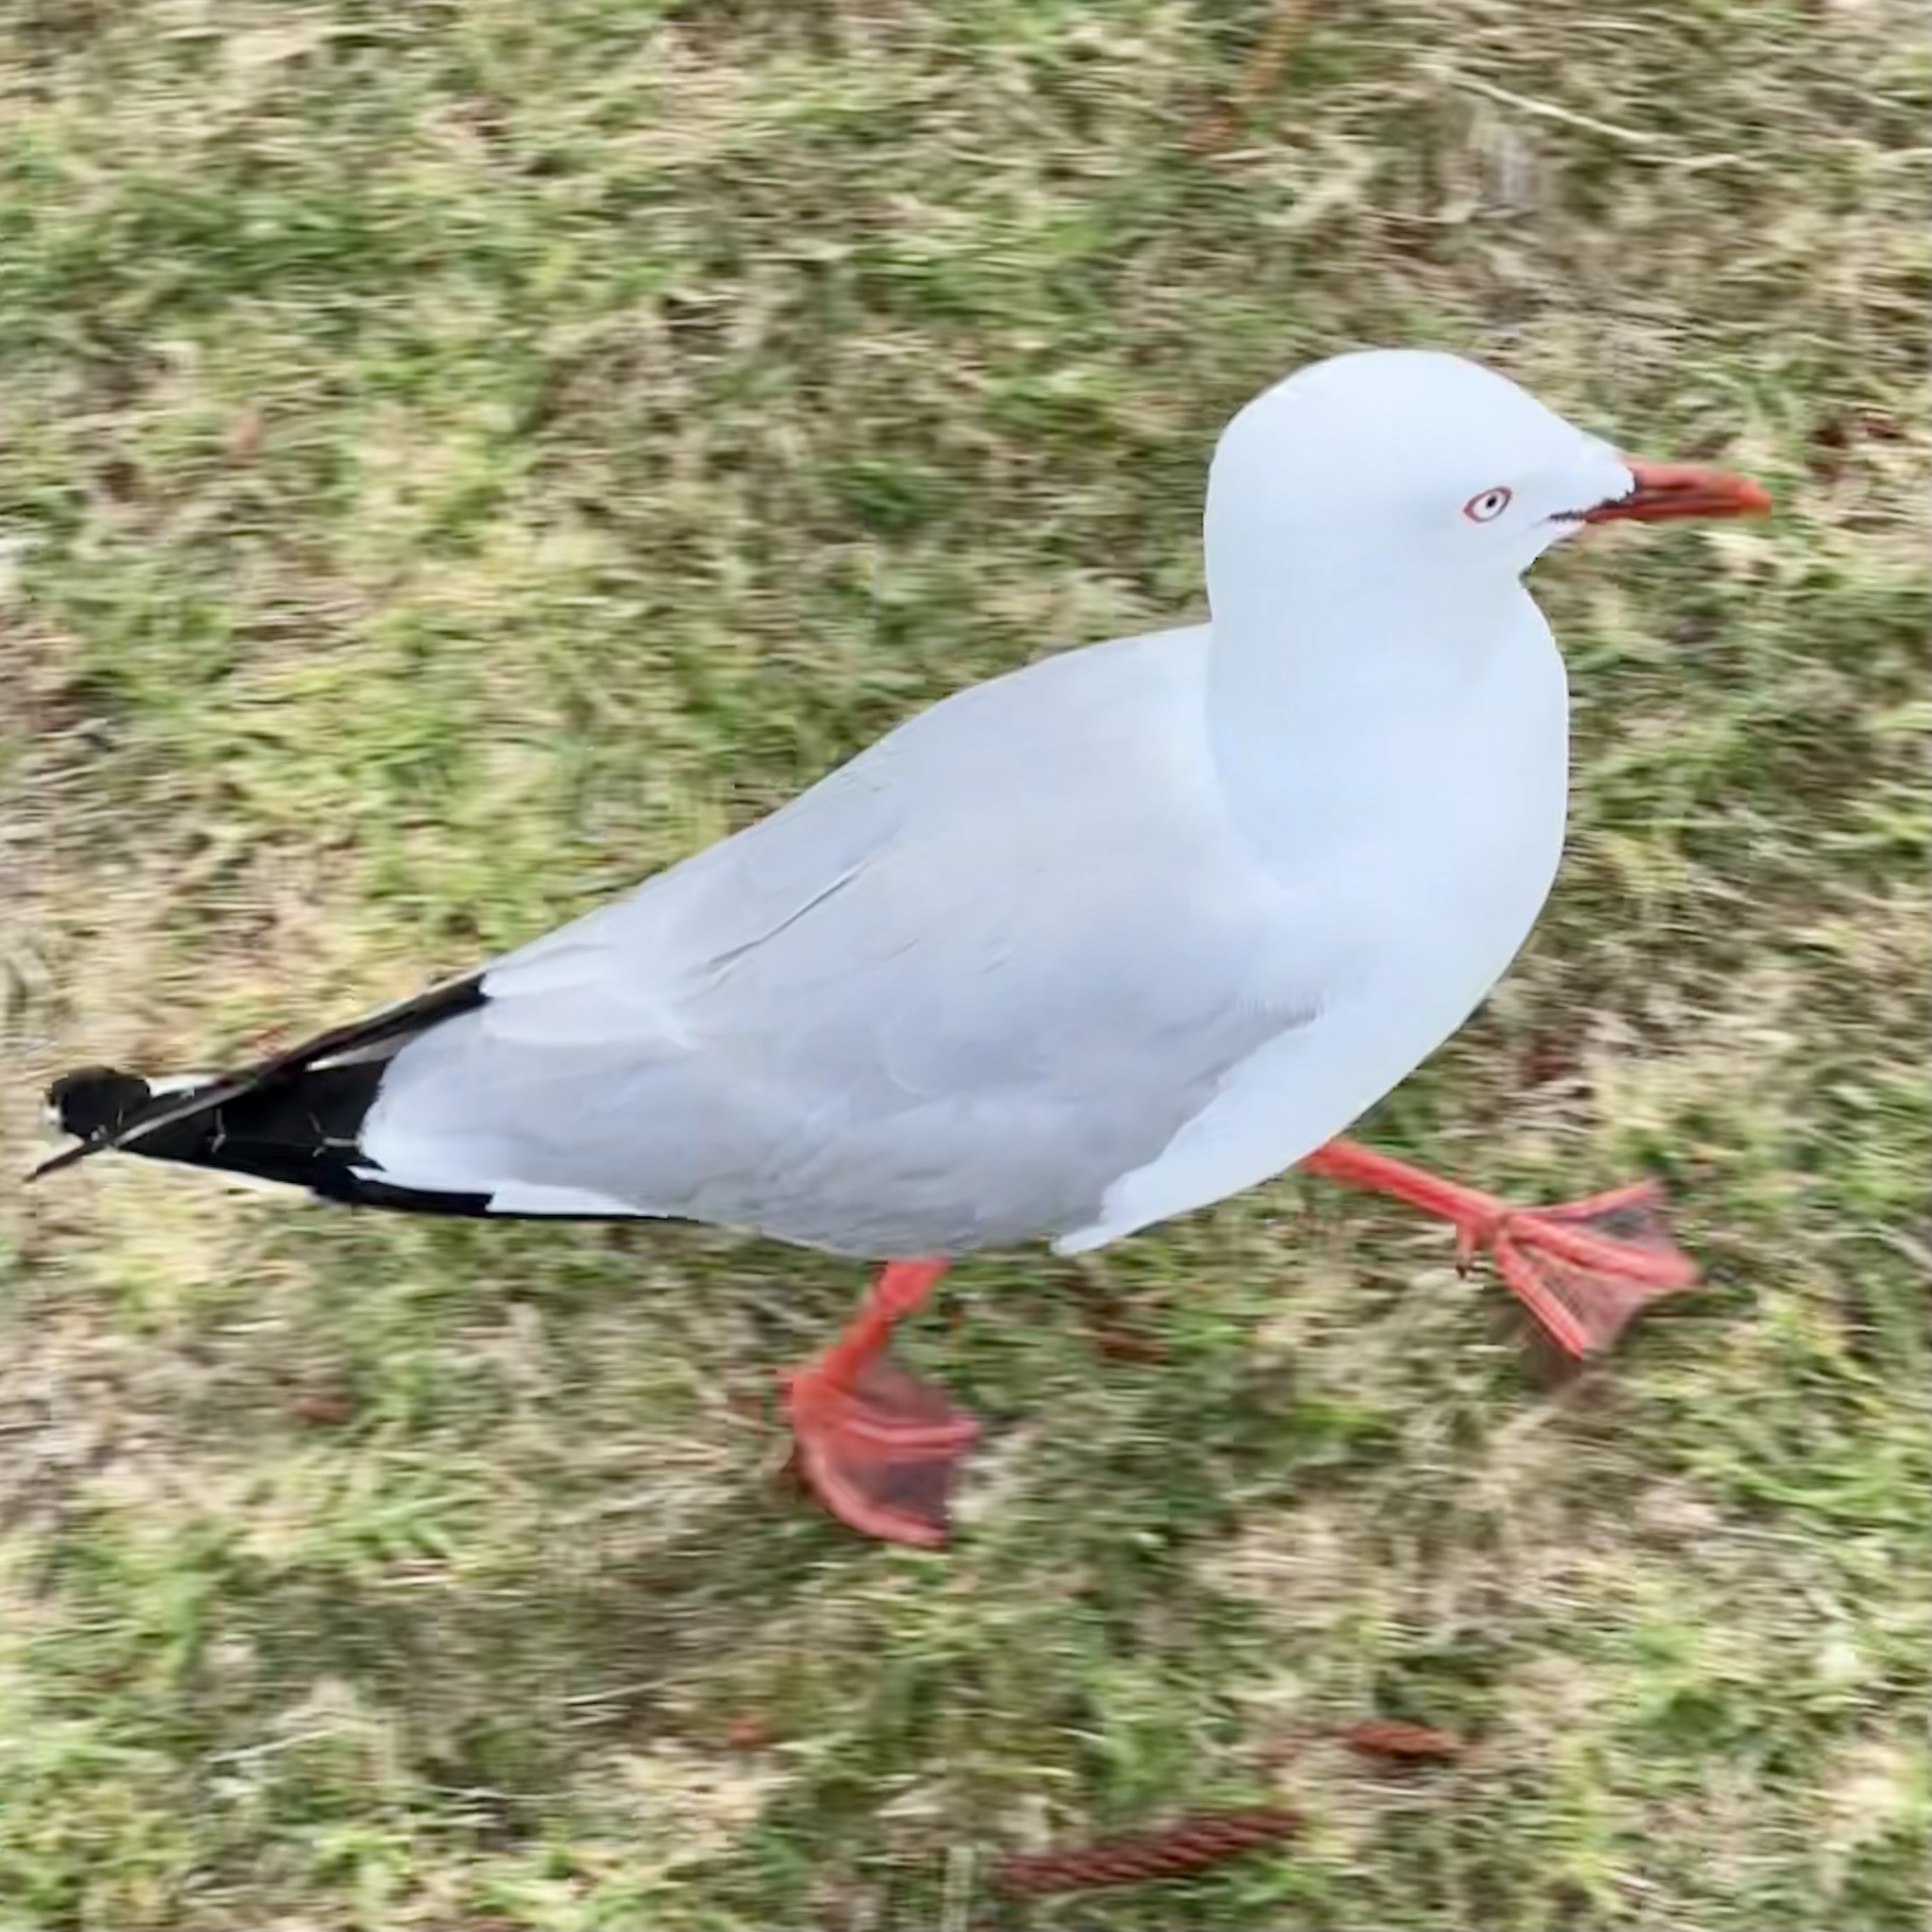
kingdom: Animalia
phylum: Chordata
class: Aves
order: Charadriiformes
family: Laridae
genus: Chroicocephalus
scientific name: Chroicocephalus novaehollandiae
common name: Silver gull
